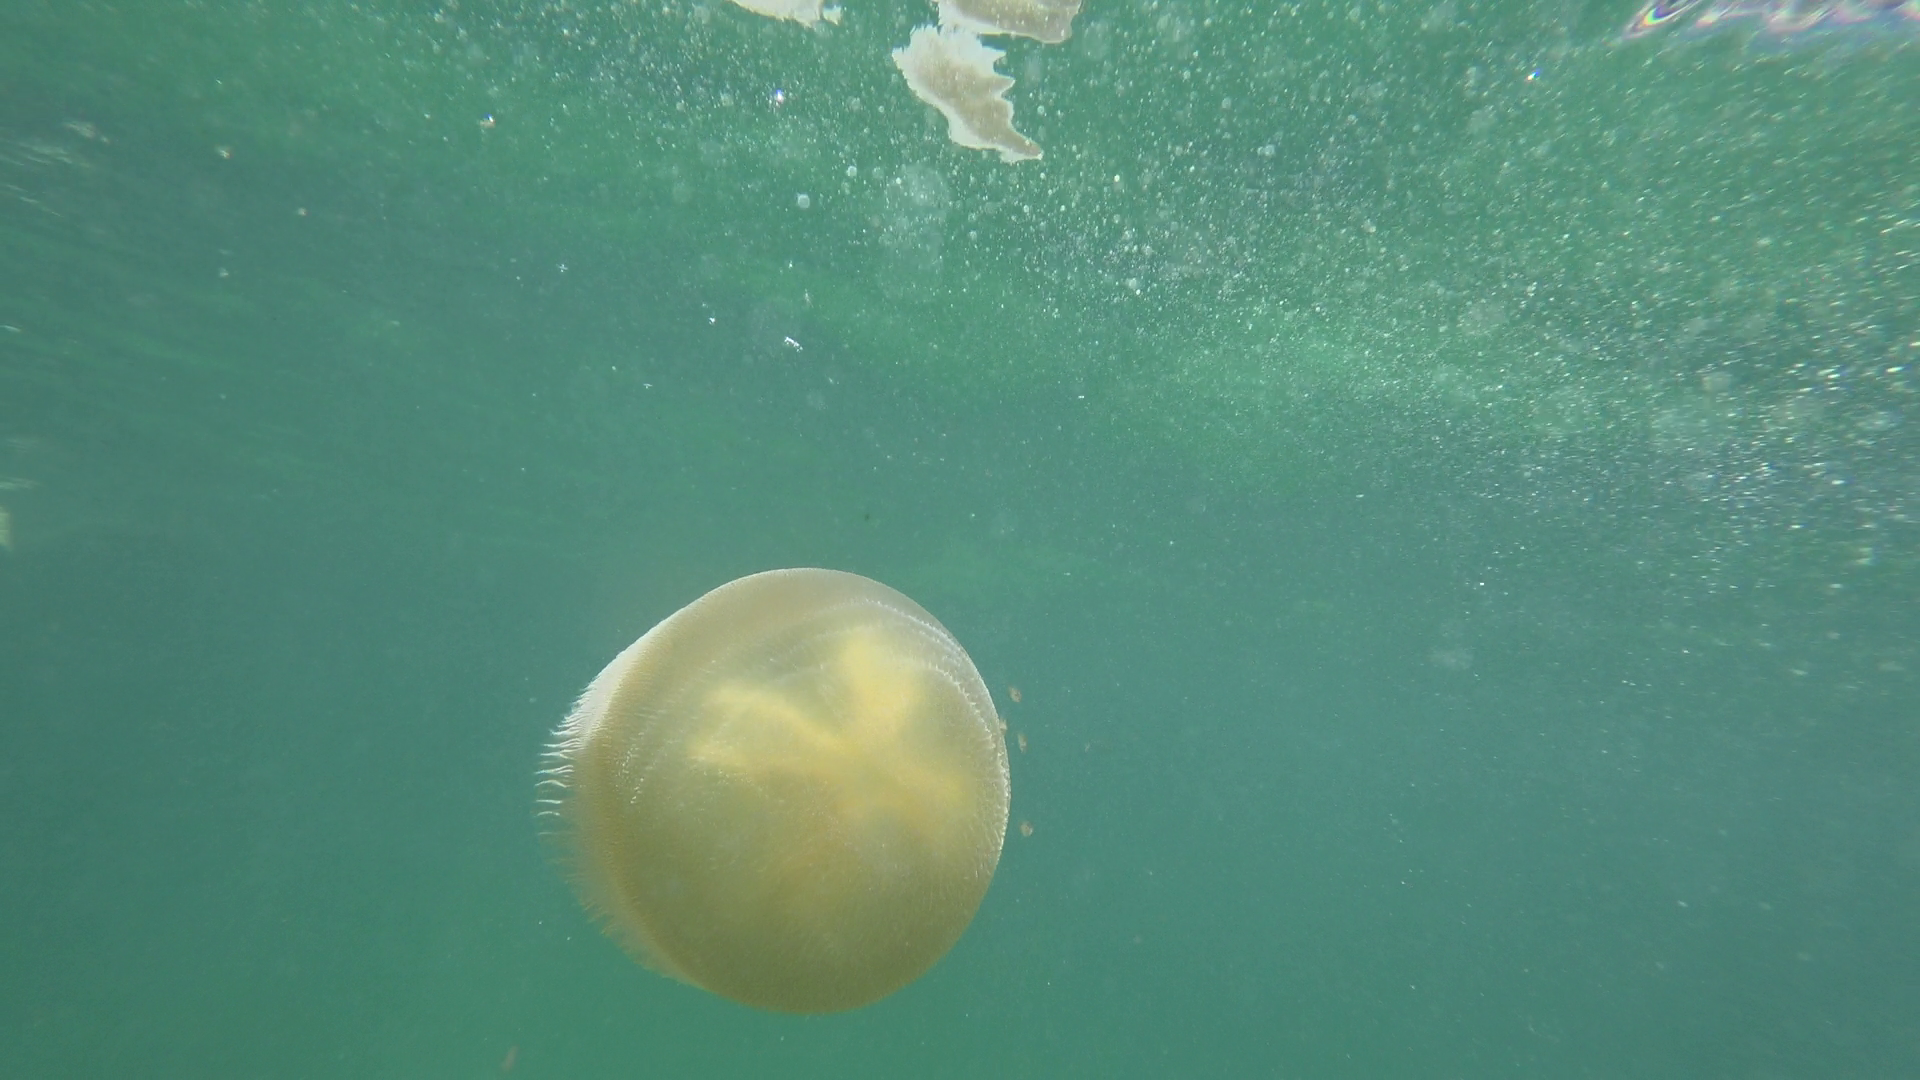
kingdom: Animalia
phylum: Cnidaria
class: Scyphozoa
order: Rhizostomeae
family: Catostylidae
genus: Catostylus
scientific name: Catostylus mosaicus
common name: Blue blubber
